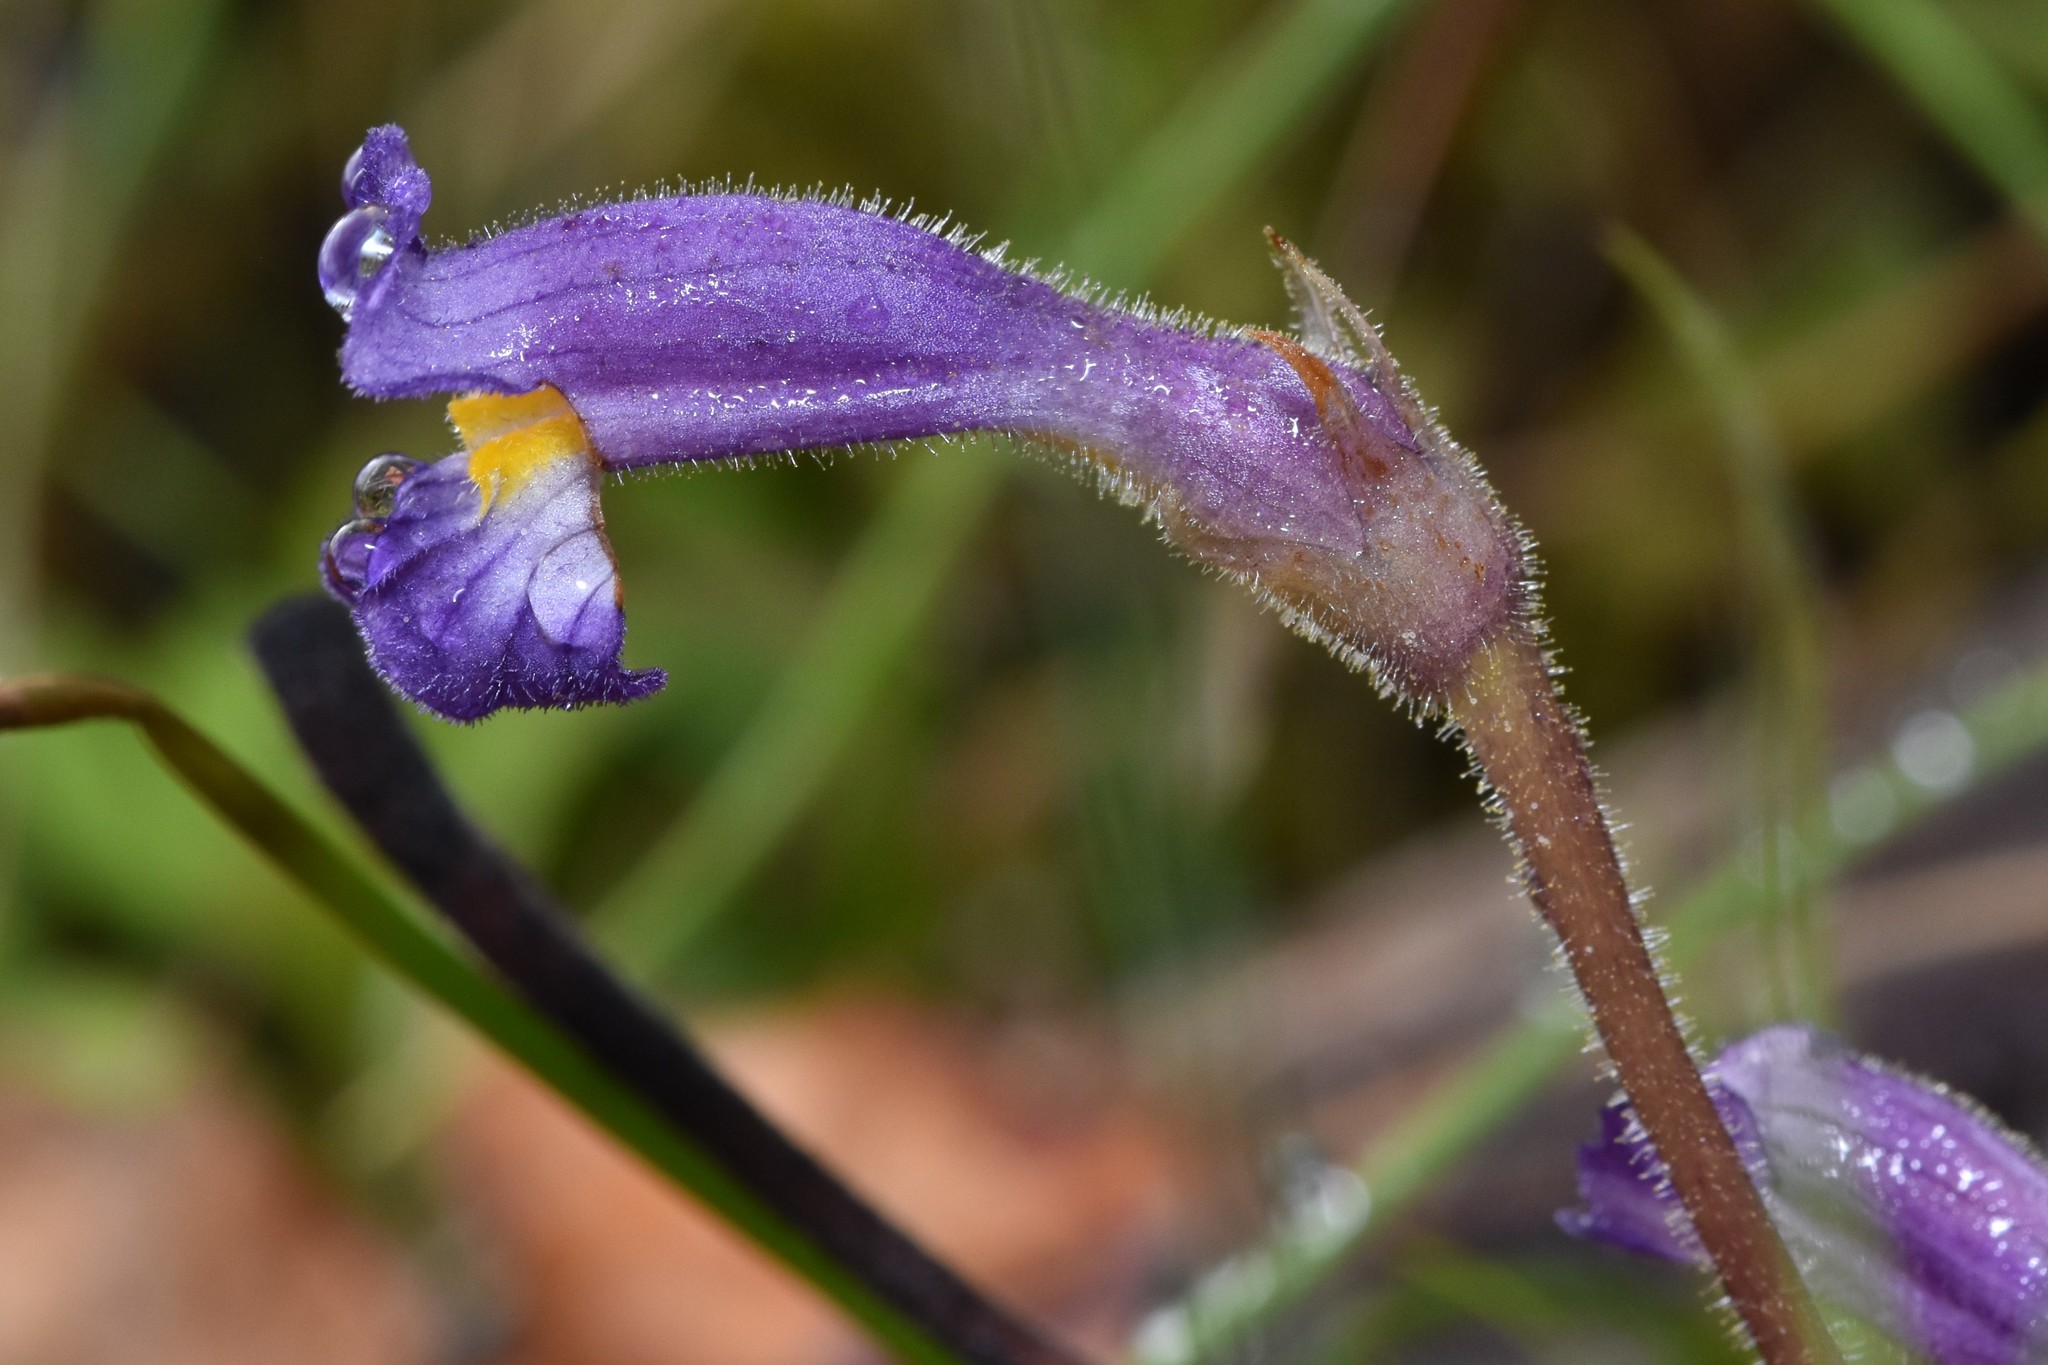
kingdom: Plantae
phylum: Tracheophyta
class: Magnoliopsida
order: Lamiales
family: Orobanchaceae
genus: Aphyllon
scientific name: Aphyllon uniflorum
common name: One-flowered broomrape
